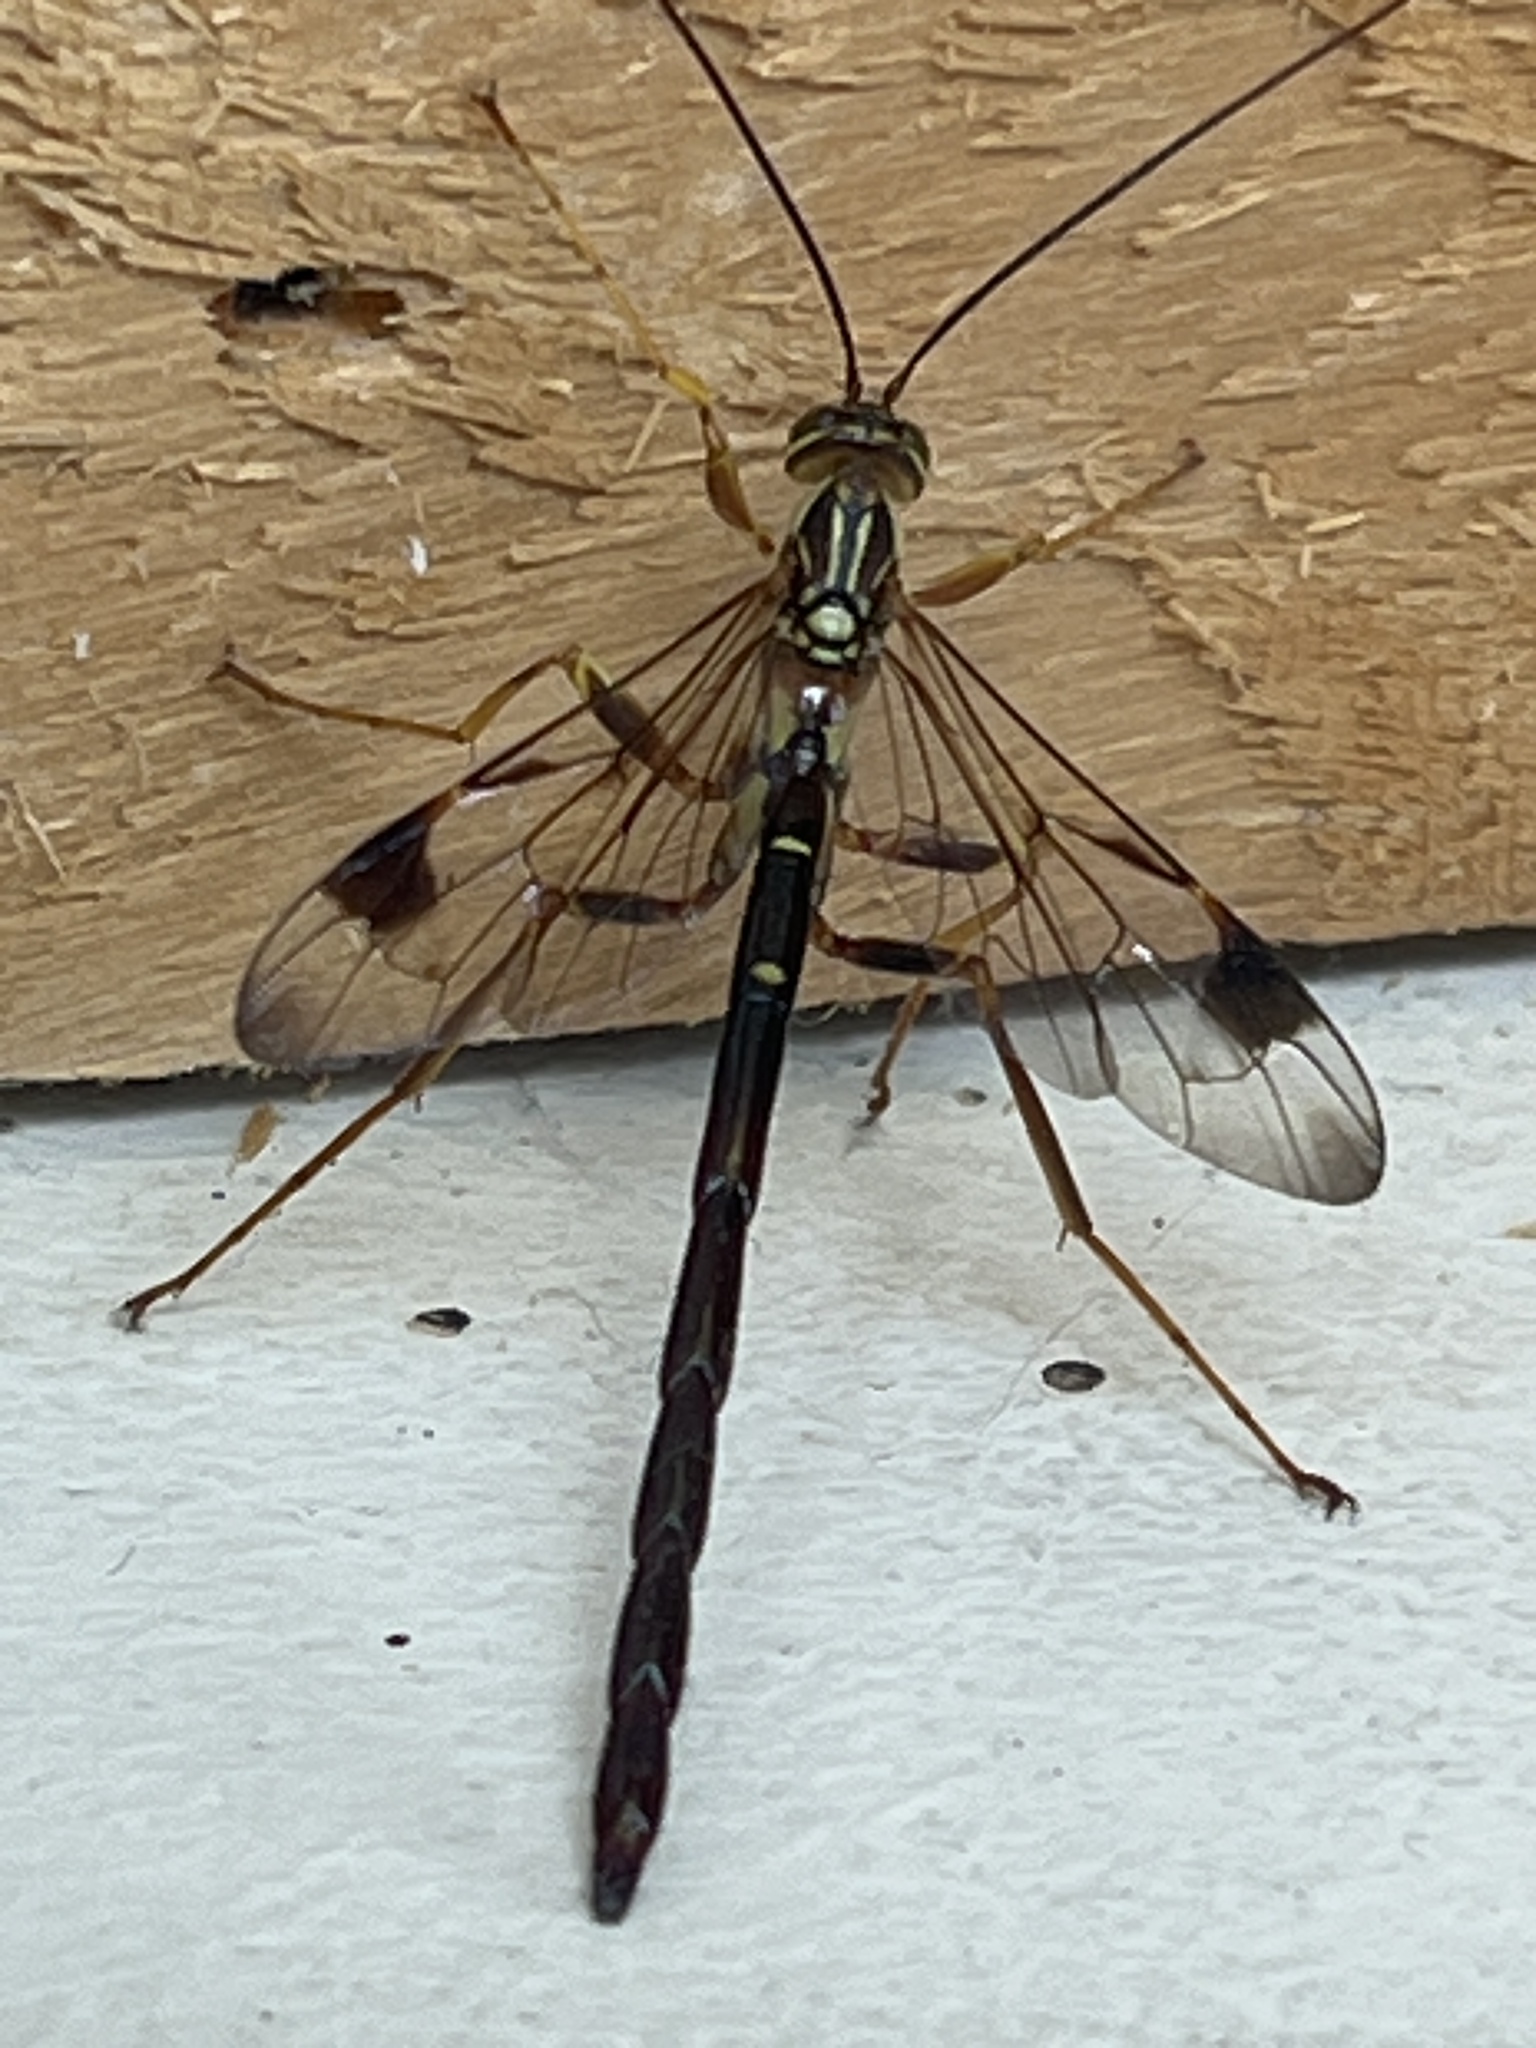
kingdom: Animalia
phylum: Arthropoda
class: Insecta
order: Hymenoptera
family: Ichneumonidae
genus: Megarhyssa
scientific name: Megarhyssa macrura
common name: Long-tailed giant ichneumonid wasp
